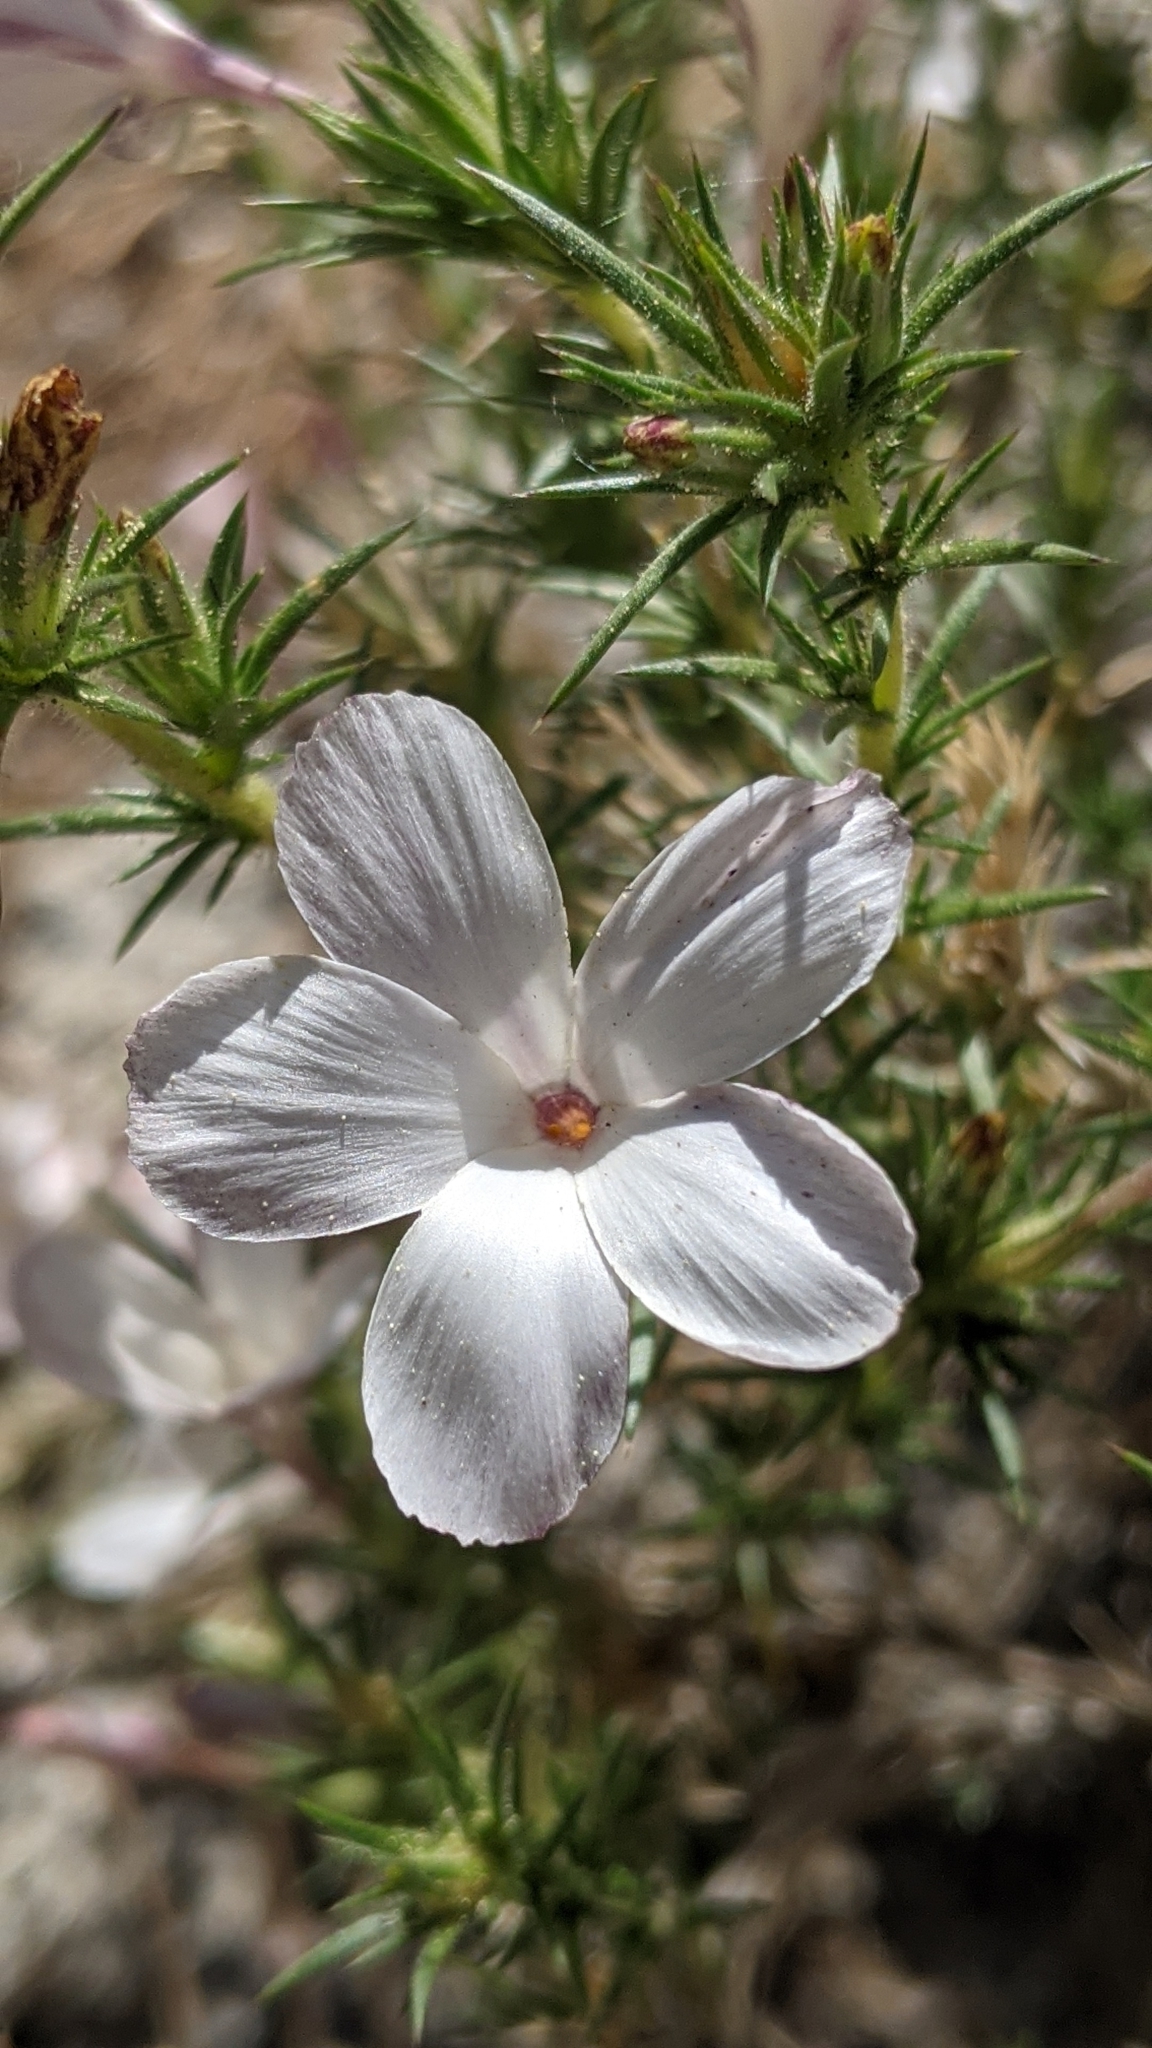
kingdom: Plantae
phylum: Tracheophyta
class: Magnoliopsida
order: Ericales
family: Polemoniaceae
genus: Linanthus
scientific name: Linanthus pungens
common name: Granite prickly phlox
